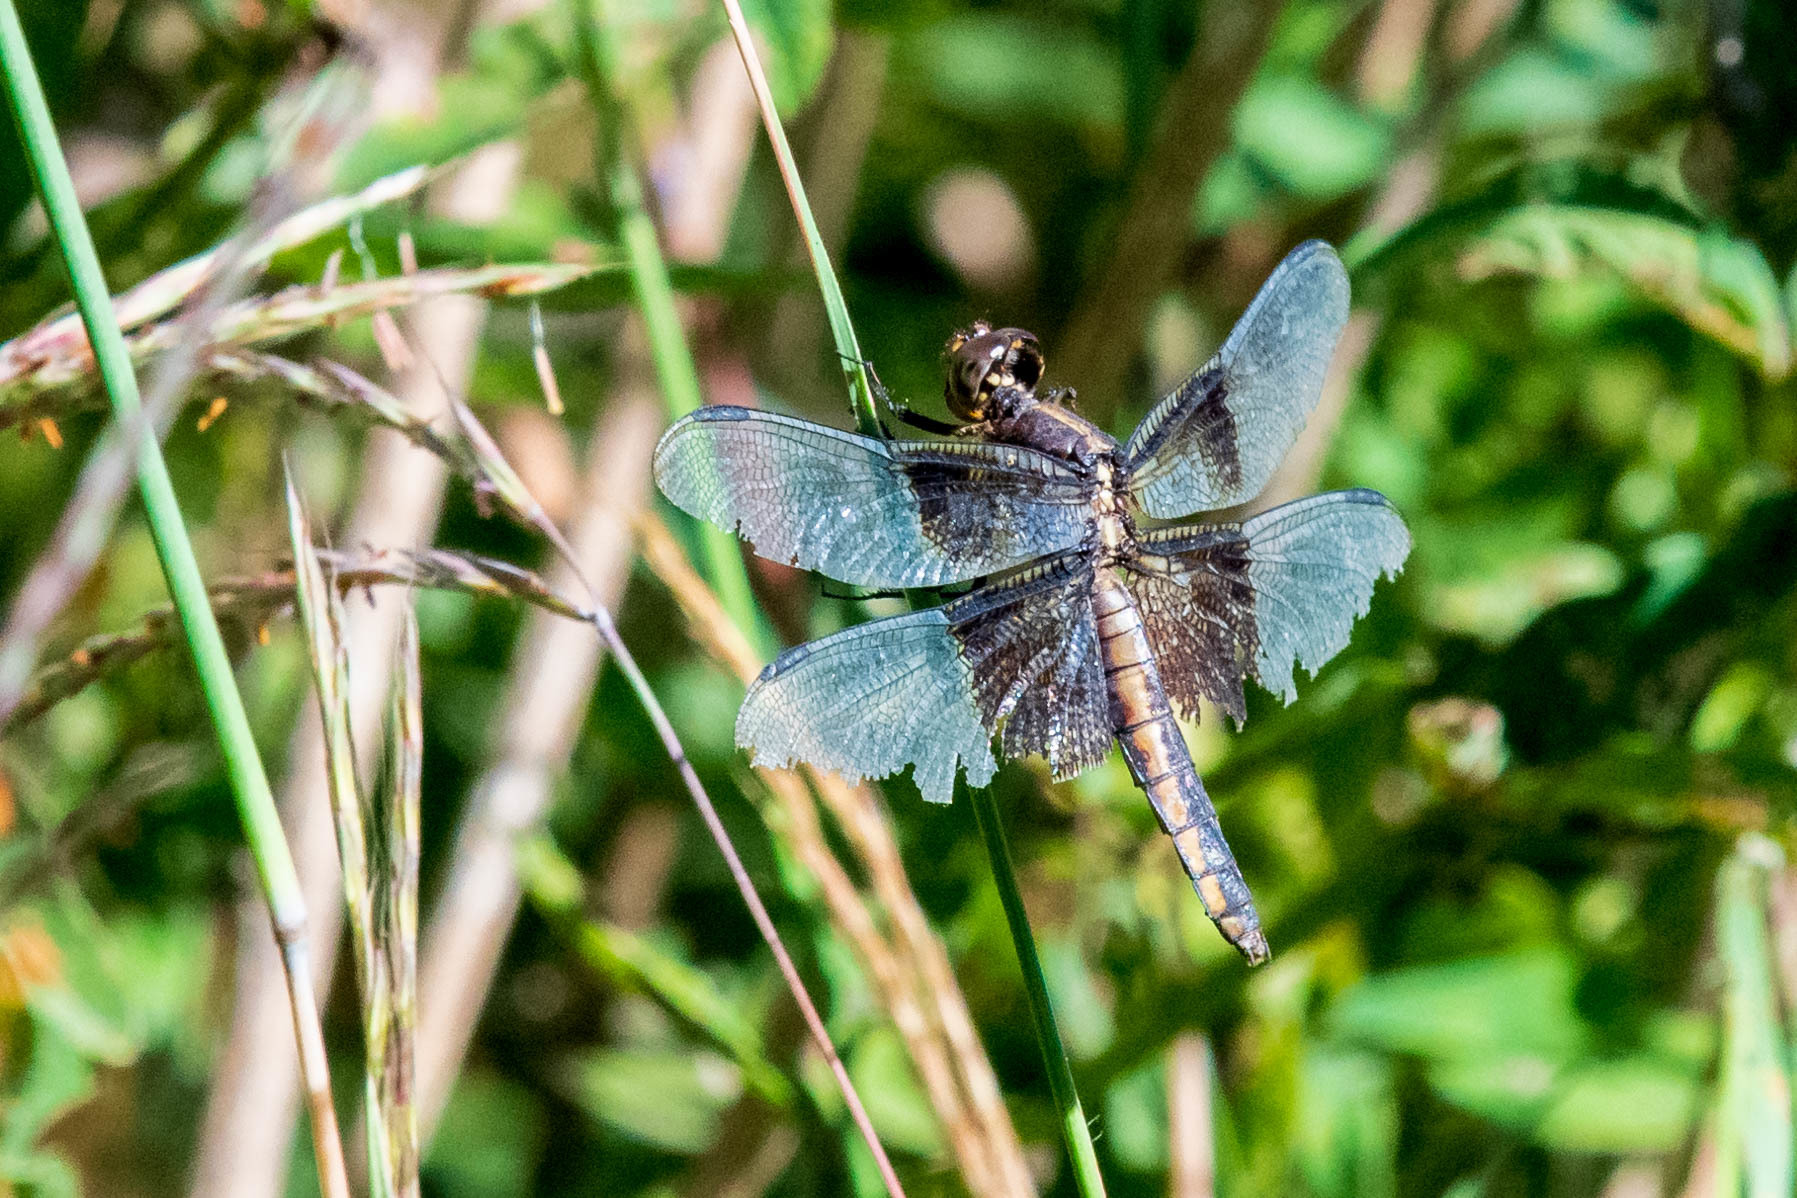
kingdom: Animalia
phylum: Arthropoda
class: Insecta
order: Odonata
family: Libellulidae
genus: Libellula
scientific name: Libellula luctuosa
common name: Widow skimmer
